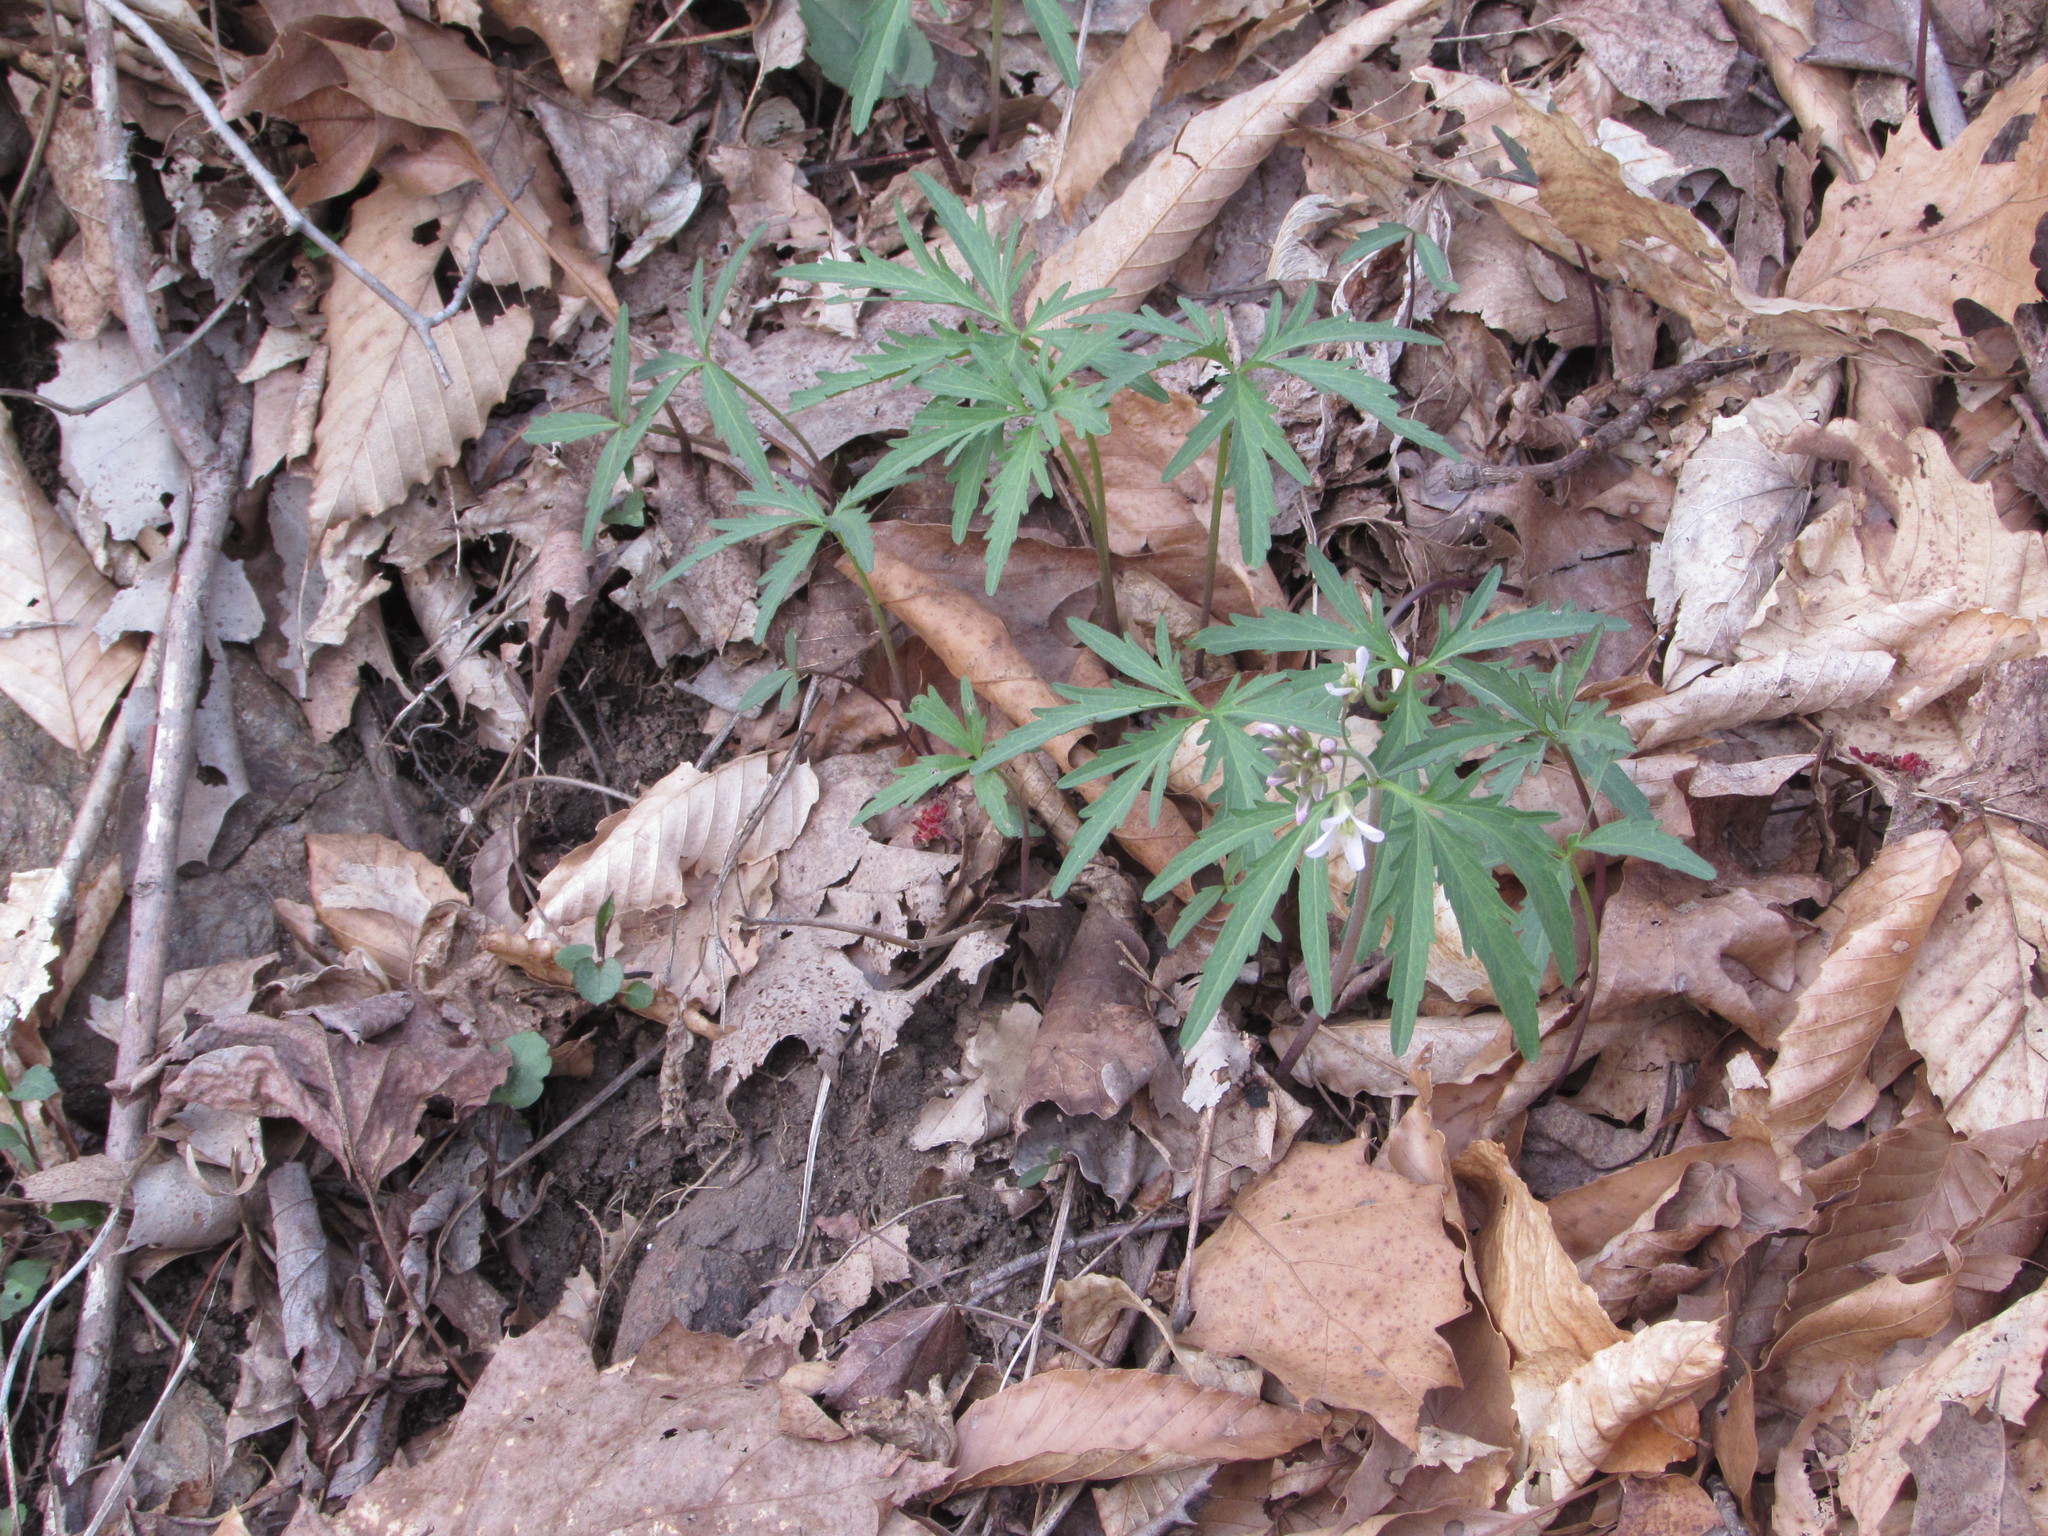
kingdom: Plantae
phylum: Tracheophyta
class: Magnoliopsida
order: Brassicales
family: Brassicaceae
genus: Cardamine
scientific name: Cardamine concatenata
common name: Cut-leaf toothcup
